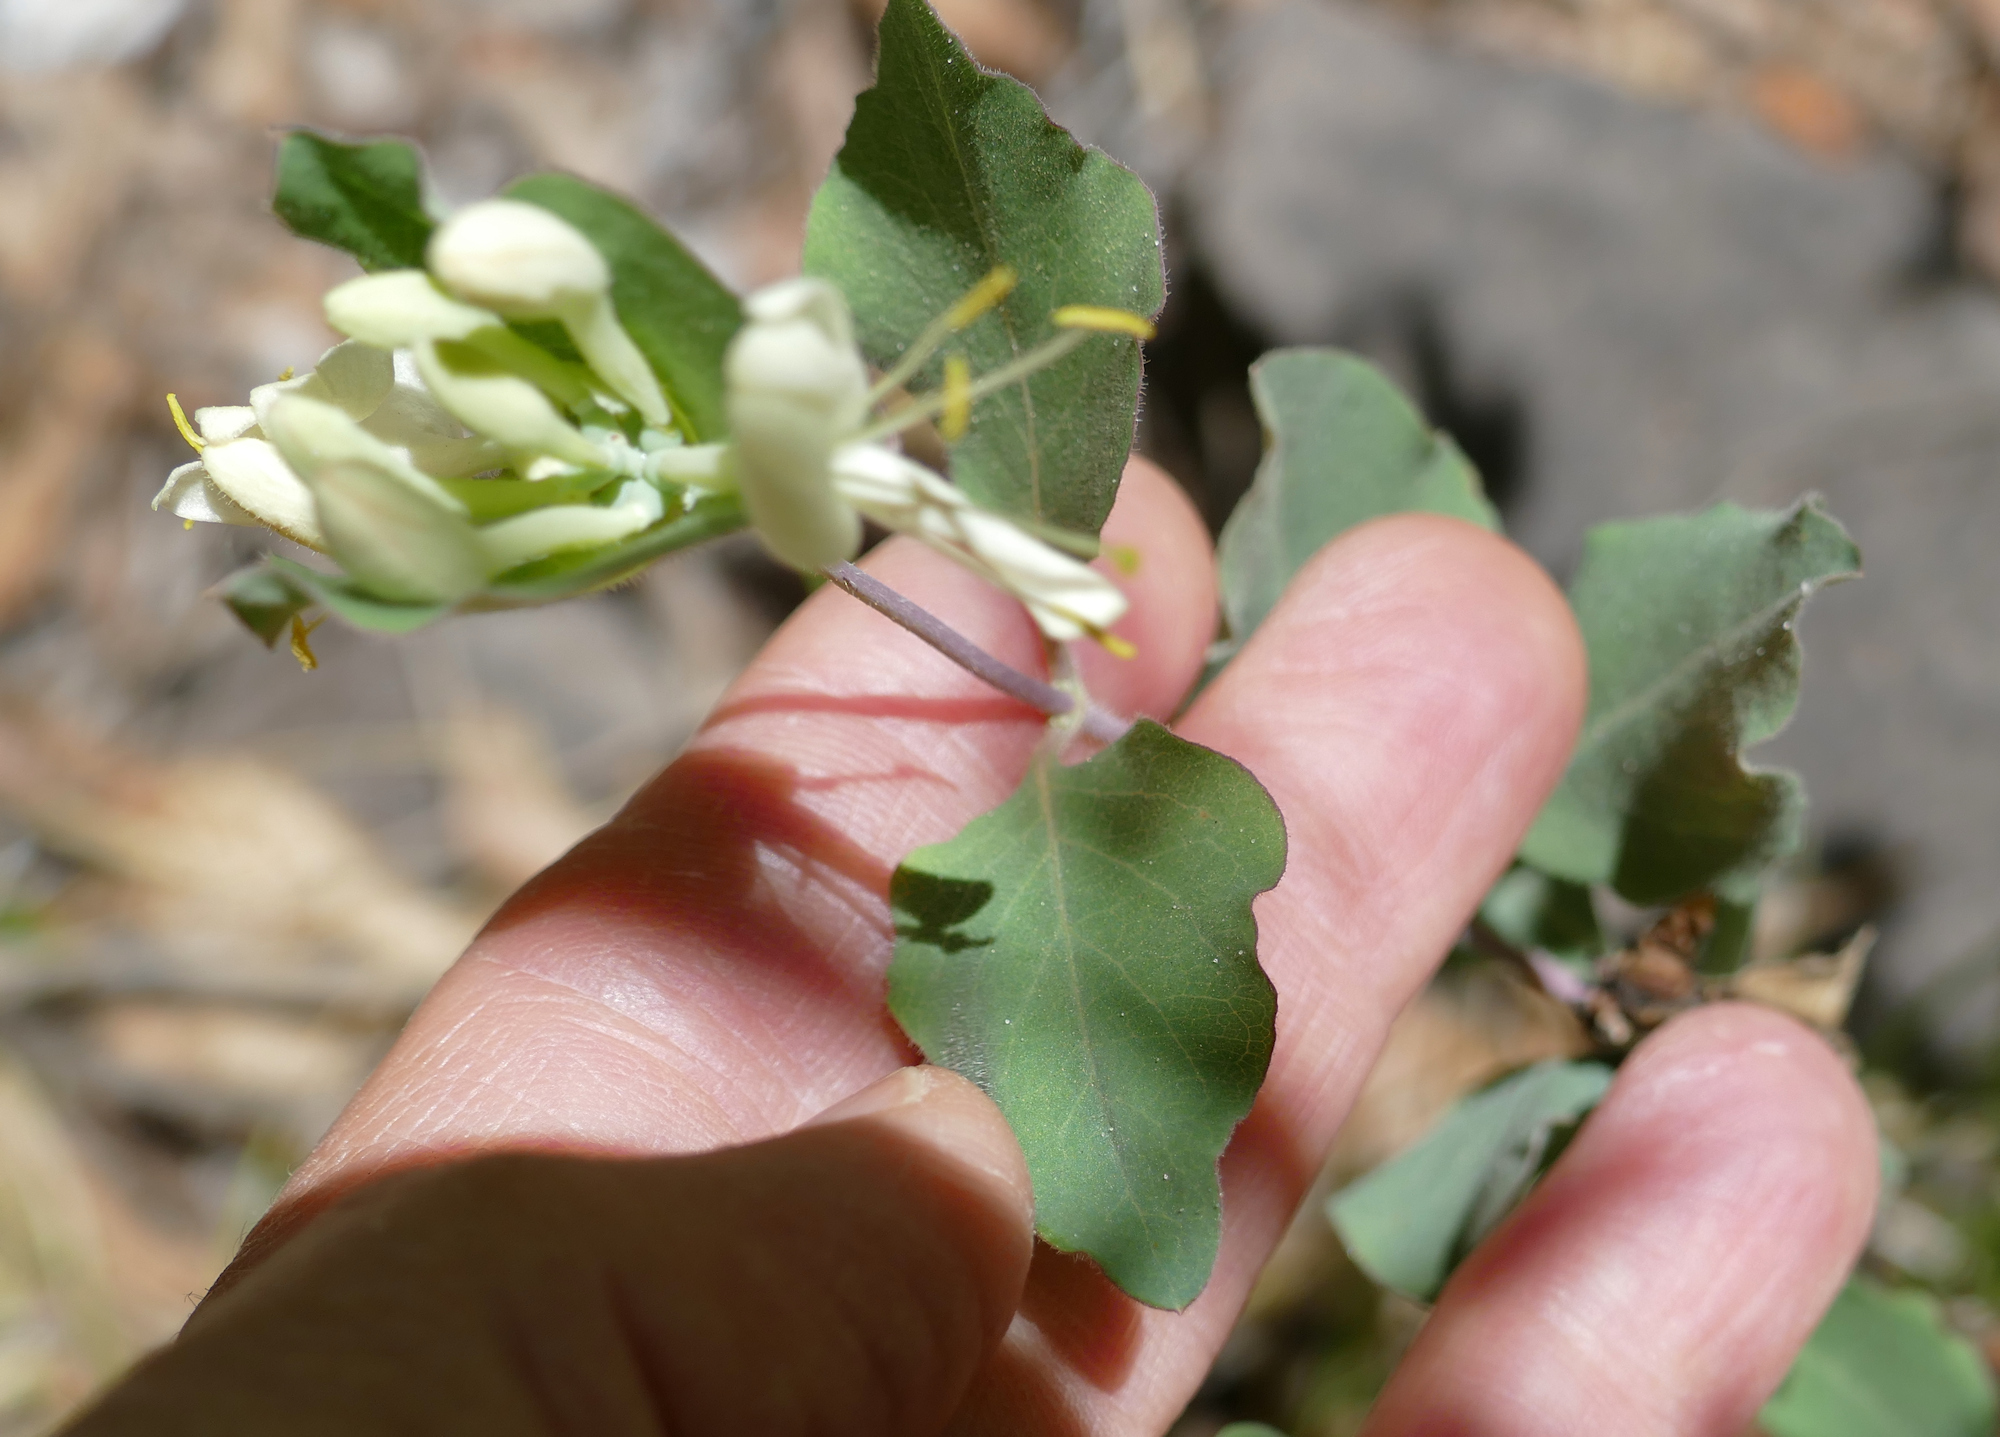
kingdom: Plantae
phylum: Tracheophyta
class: Magnoliopsida
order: Dipsacales
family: Caprifoliaceae
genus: Lonicera
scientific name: Lonicera albiflora
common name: White honeysuckle
